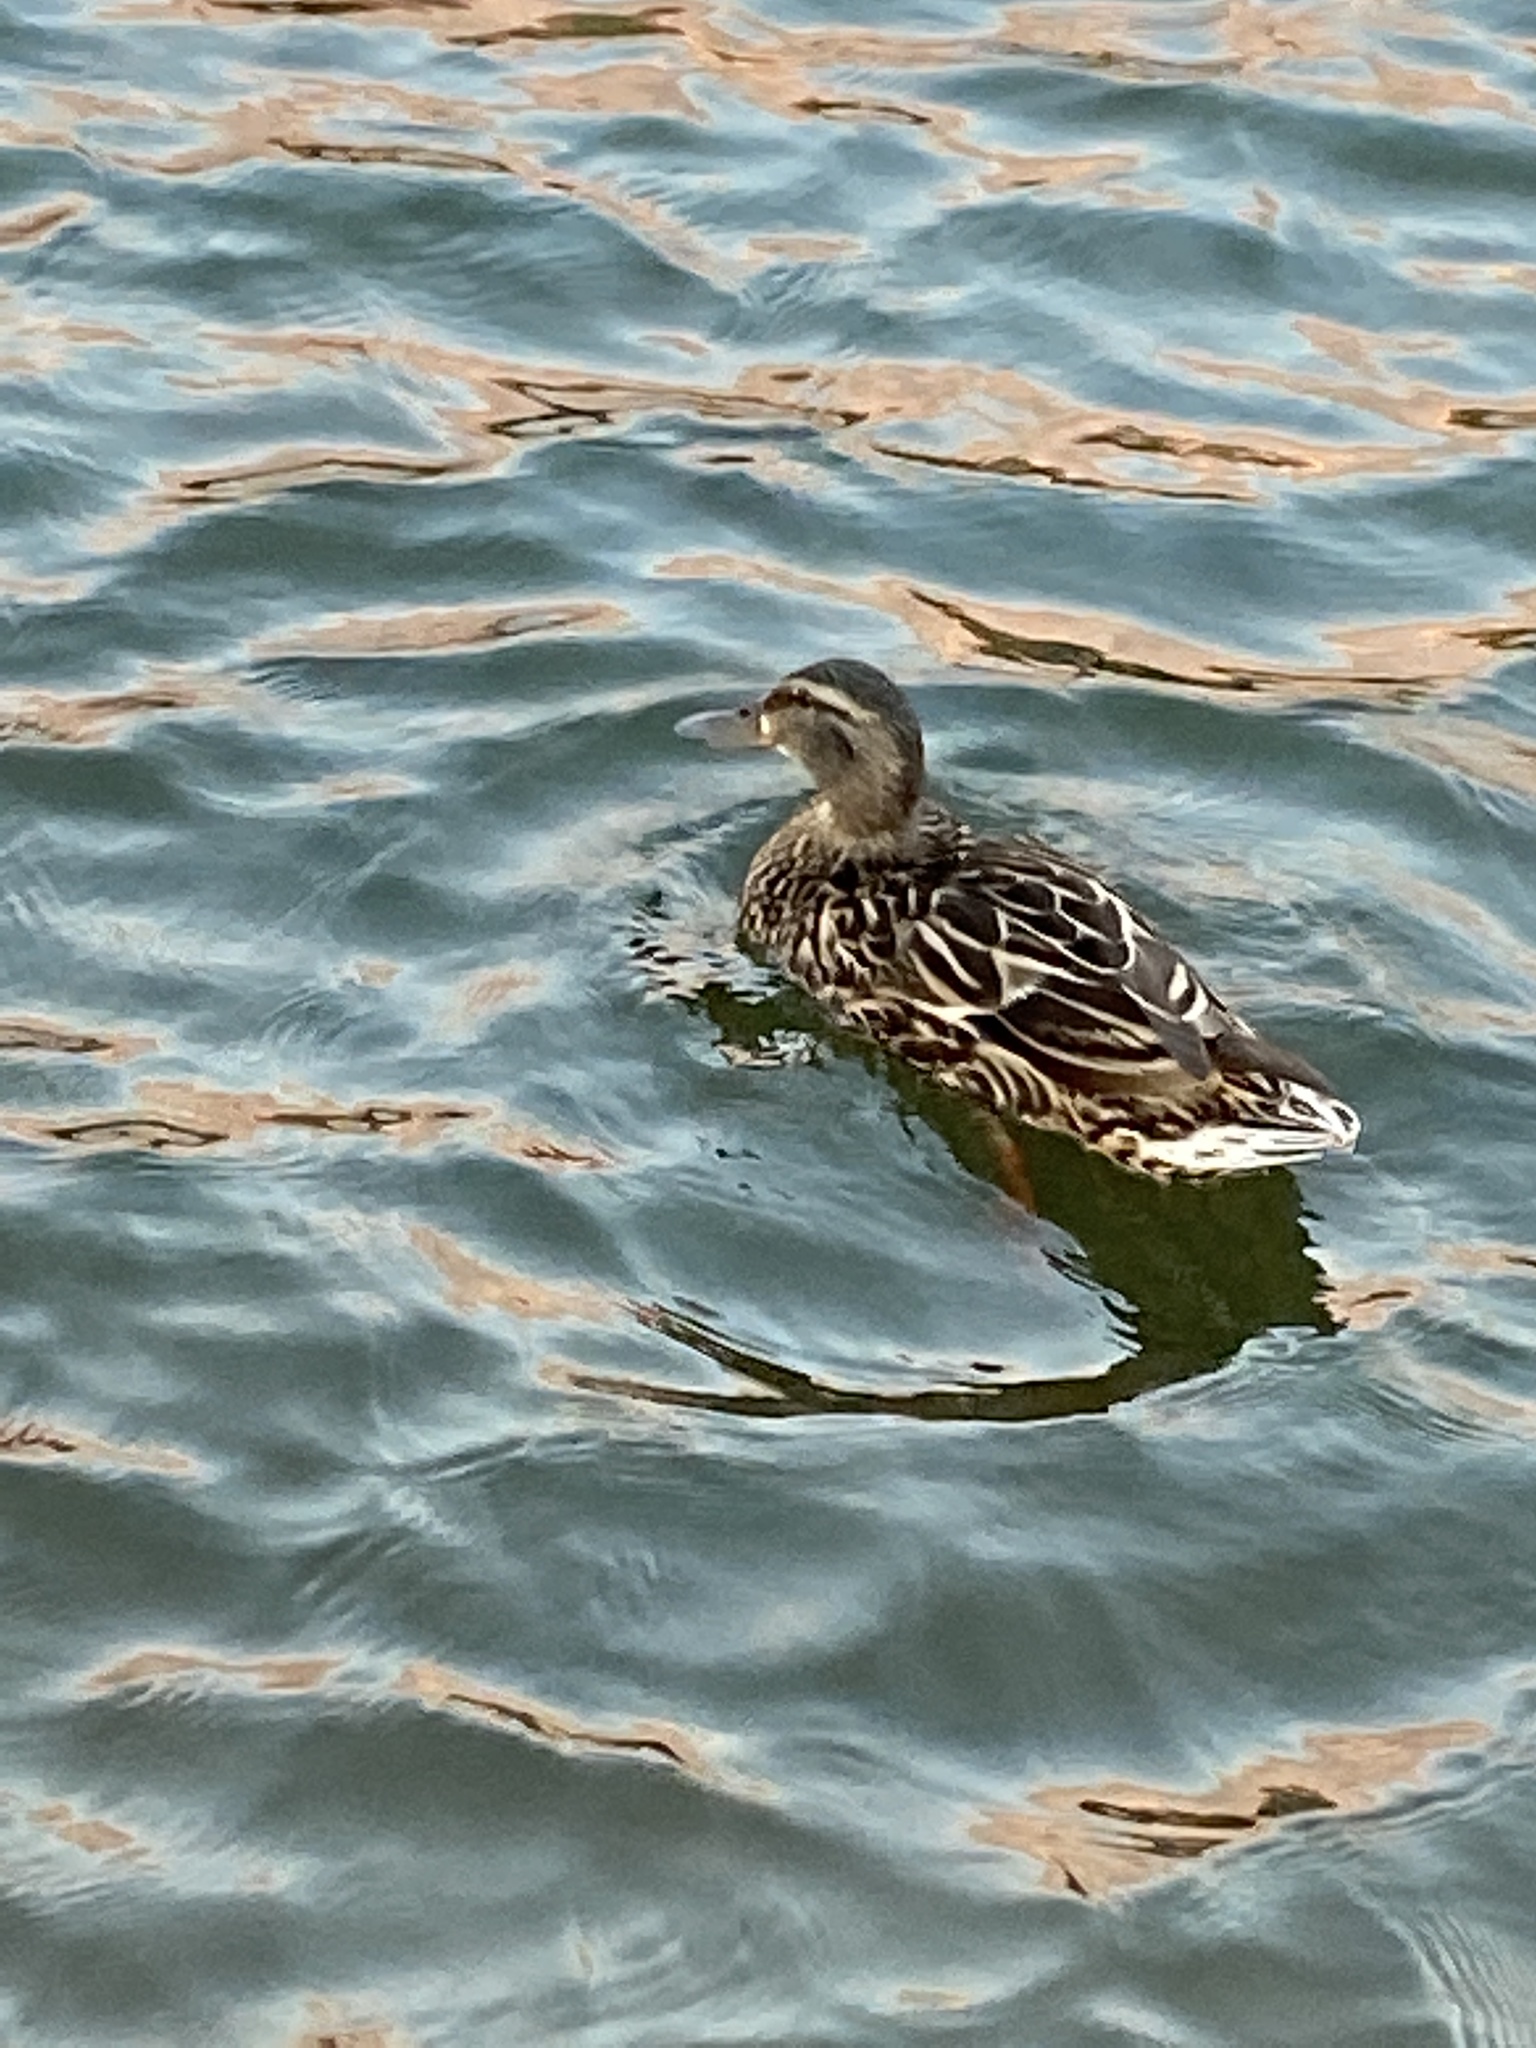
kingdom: Animalia
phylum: Chordata
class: Aves
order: Anseriformes
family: Anatidae
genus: Anas
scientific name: Anas platyrhynchos
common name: Mallard
